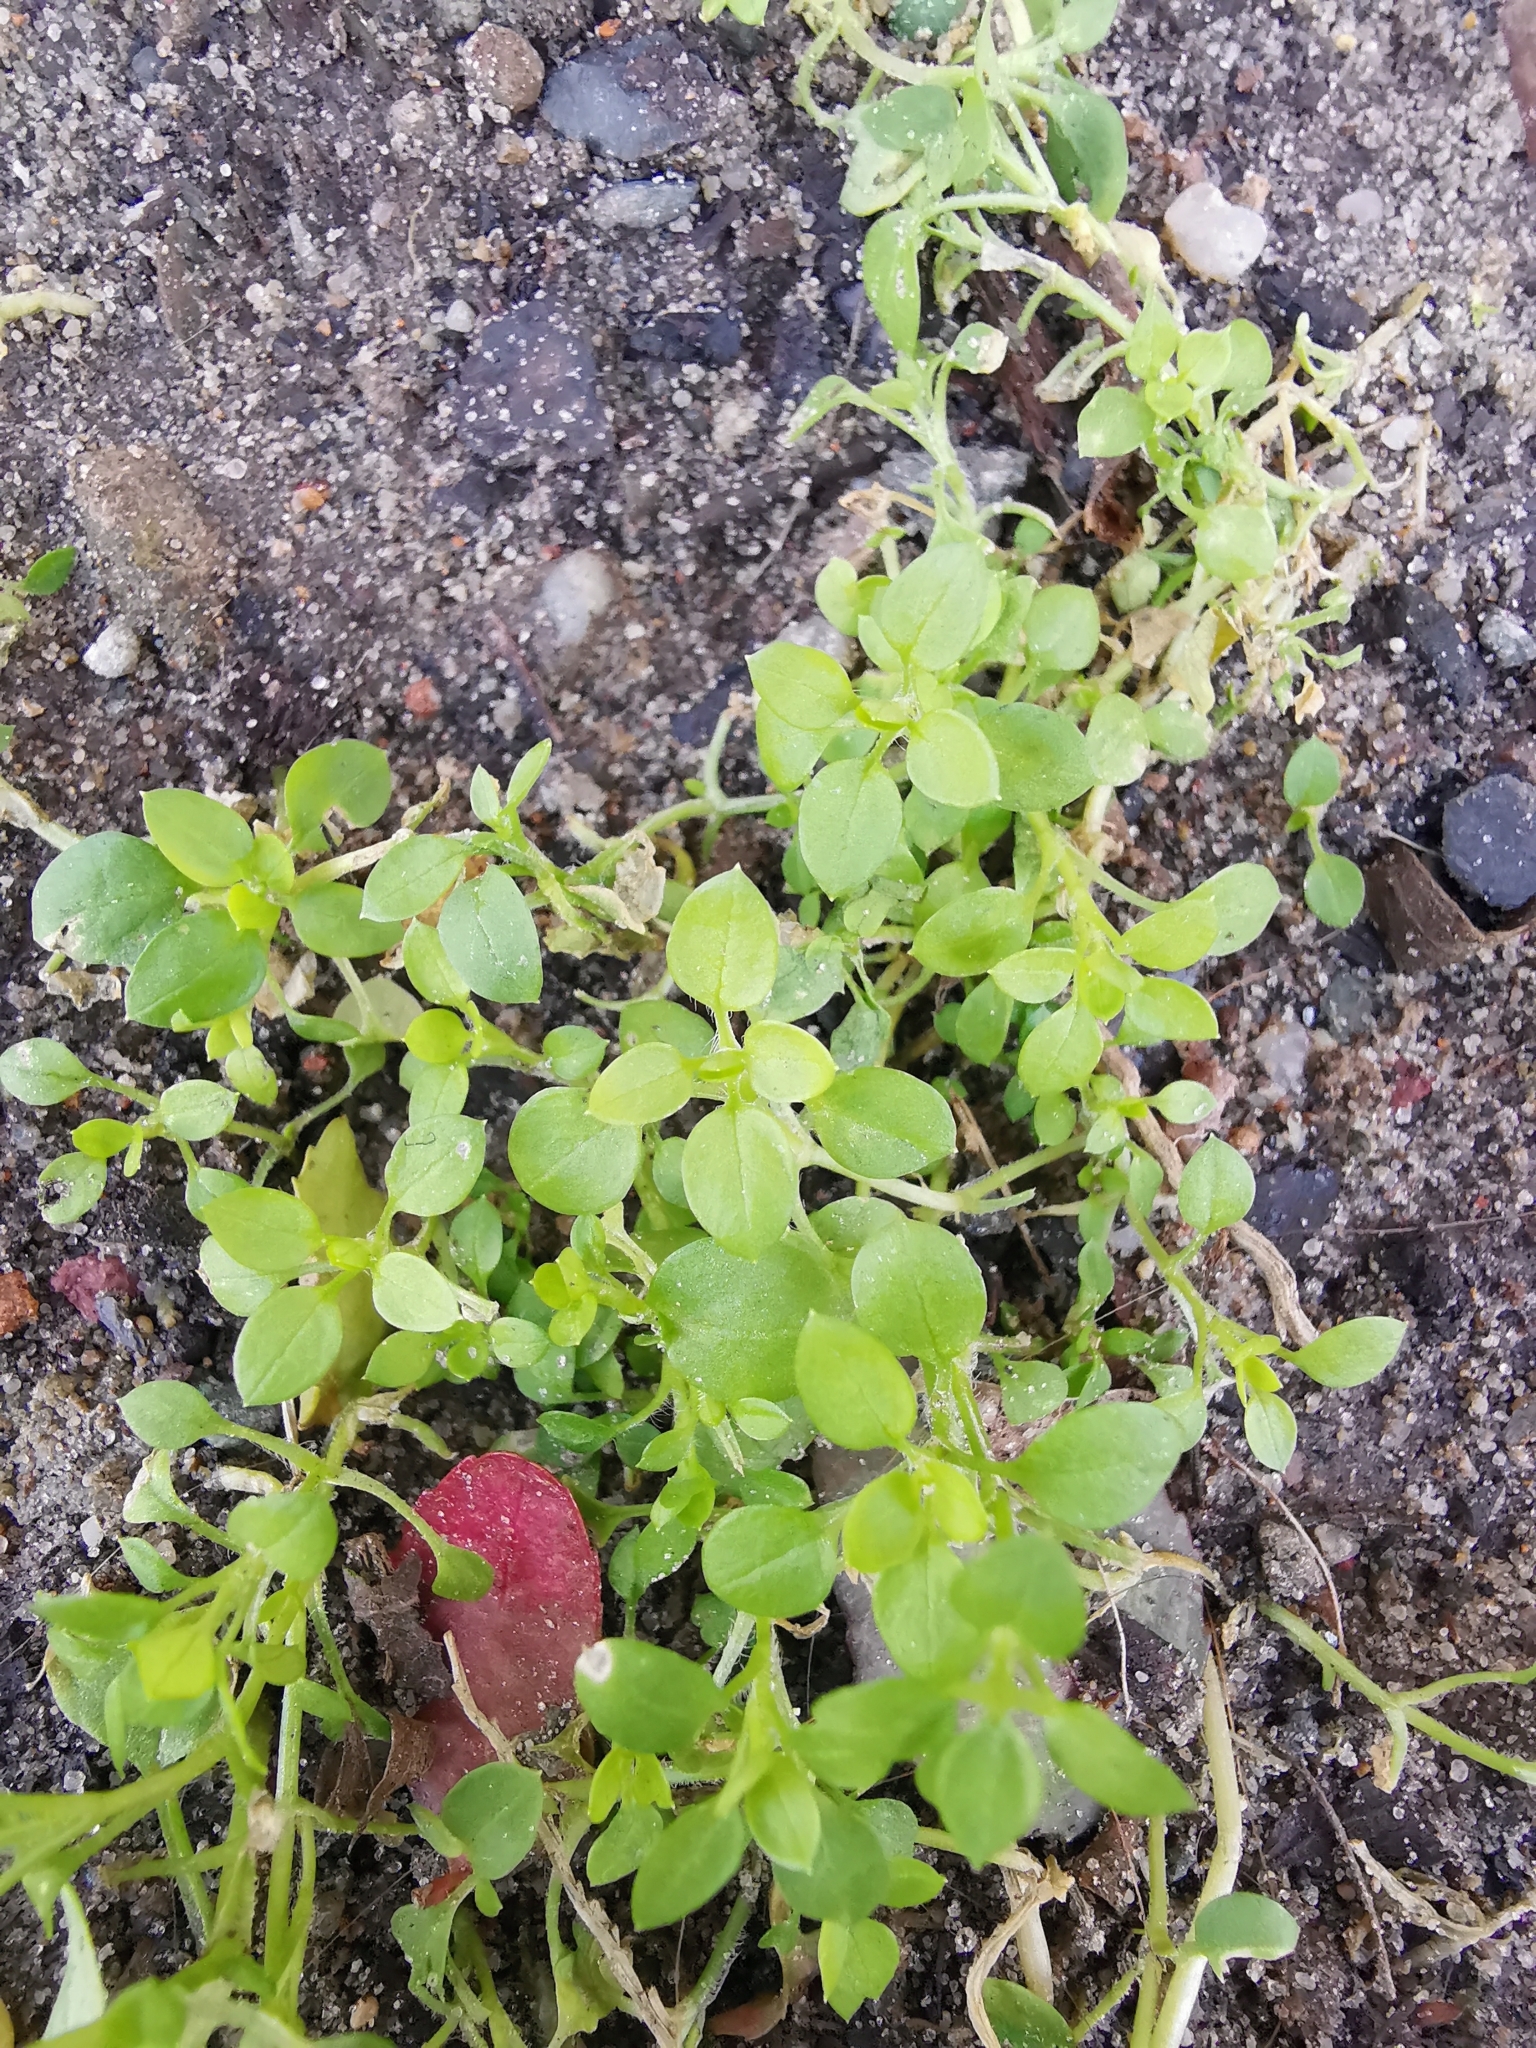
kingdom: Plantae
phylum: Tracheophyta
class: Magnoliopsida
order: Caryophyllales
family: Caryophyllaceae
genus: Stellaria
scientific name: Stellaria media
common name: Common chickweed
